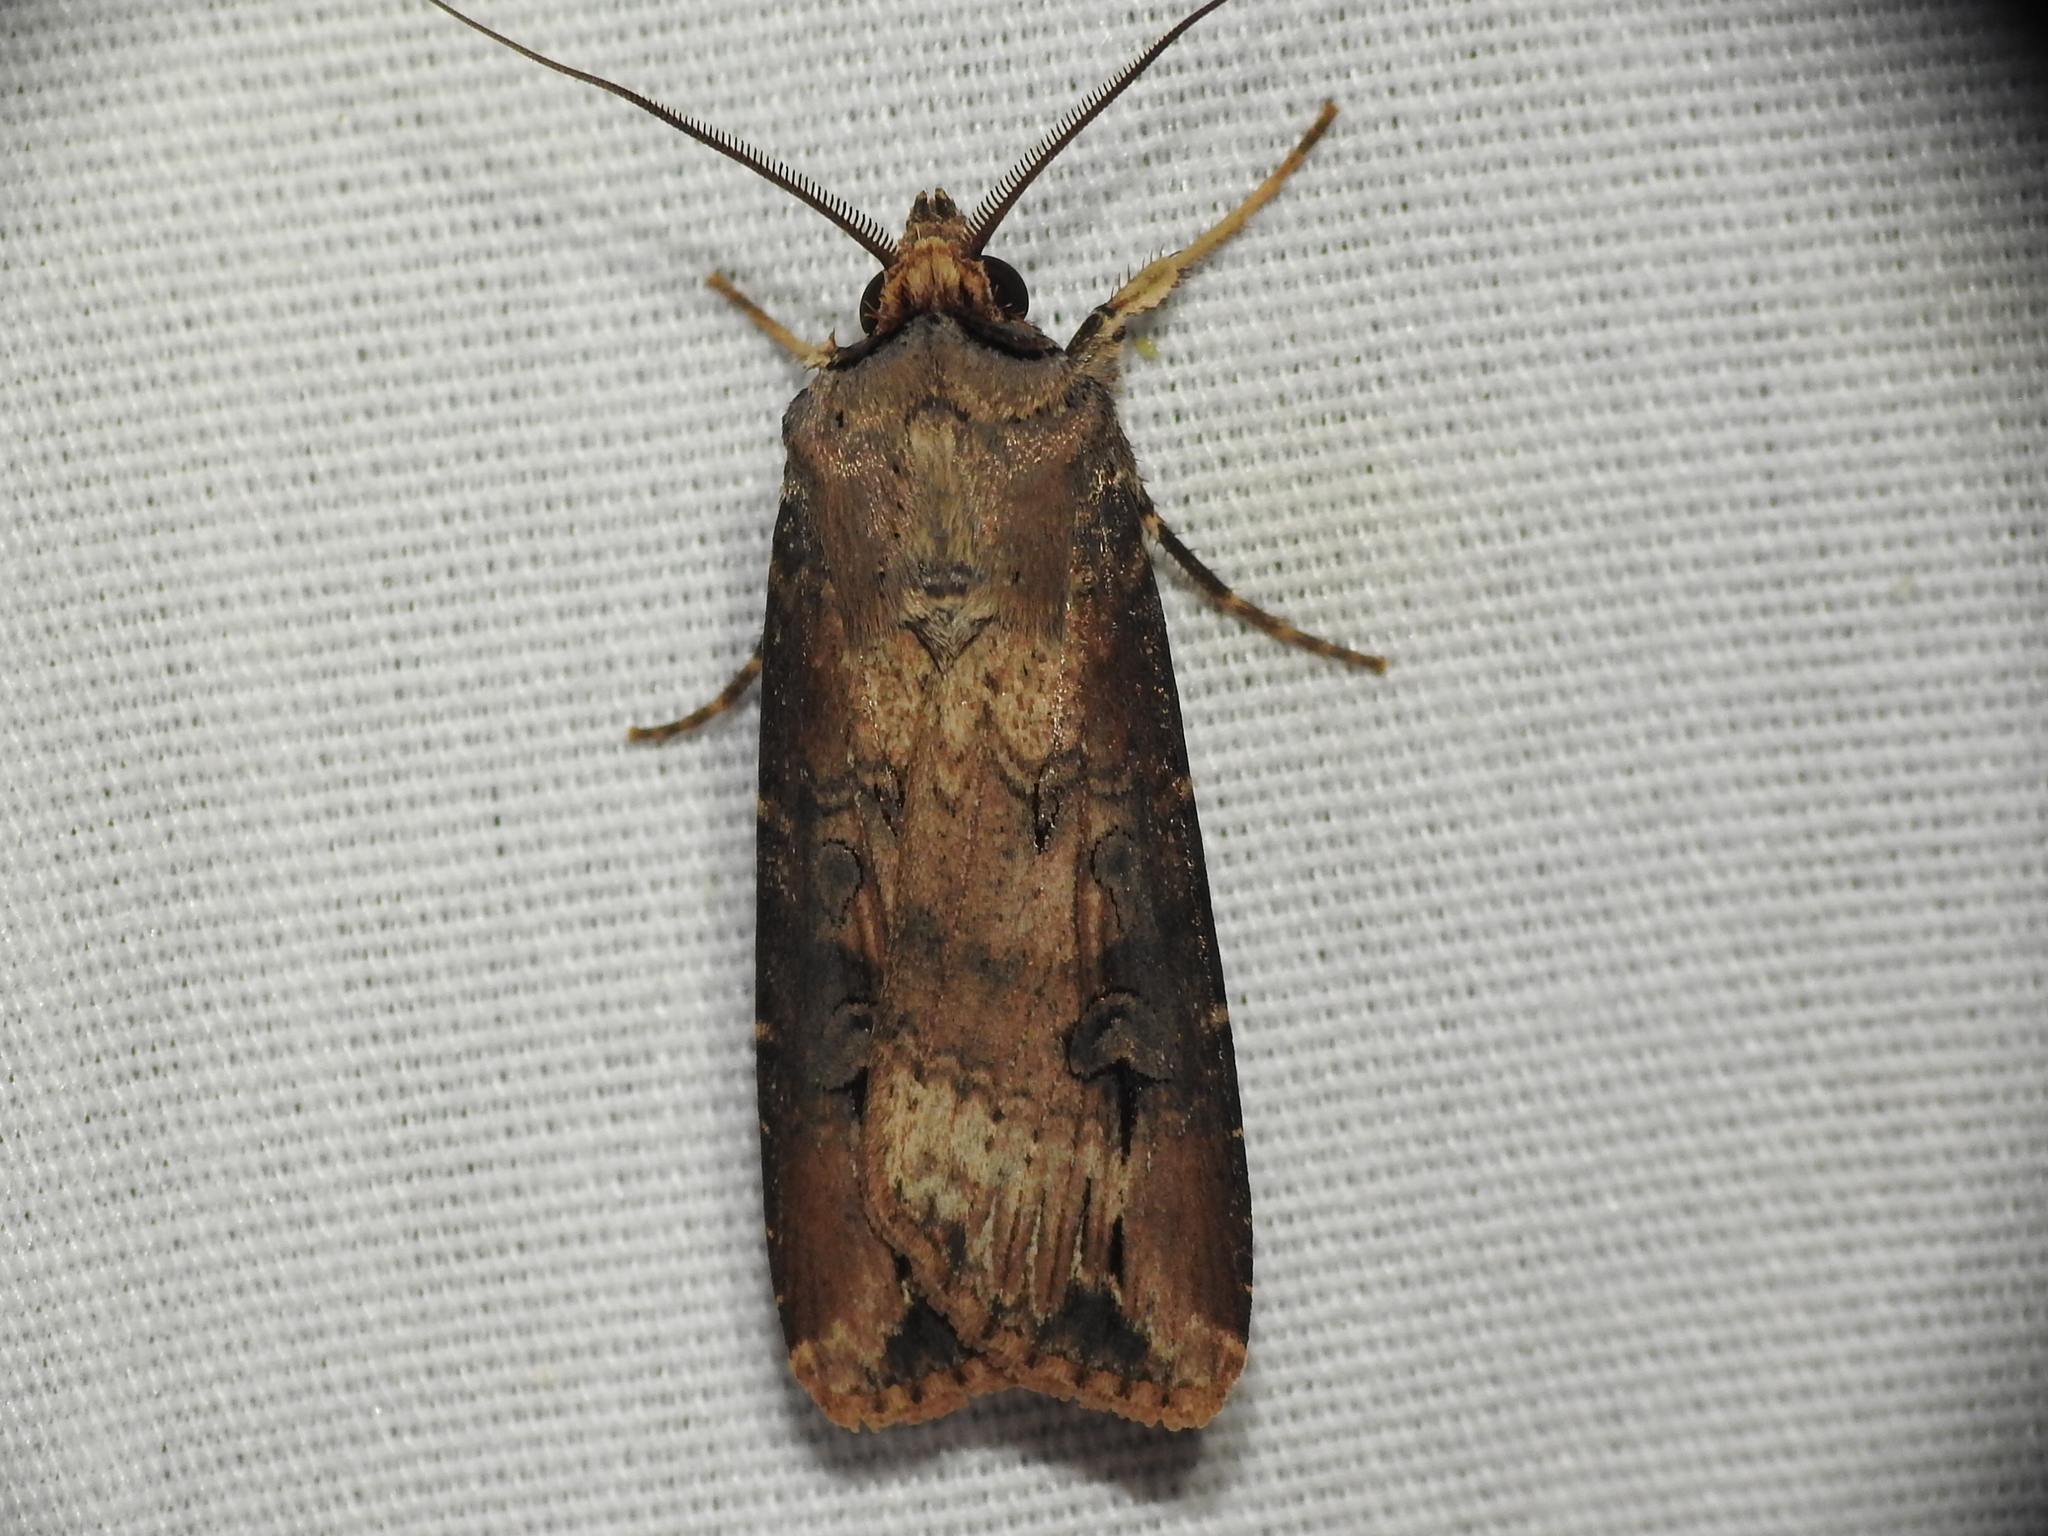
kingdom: Animalia
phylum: Arthropoda
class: Insecta
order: Lepidoptera
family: Noctuidae
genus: Agrotis
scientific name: Agrotis ipsilon
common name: Dark sword-grass
